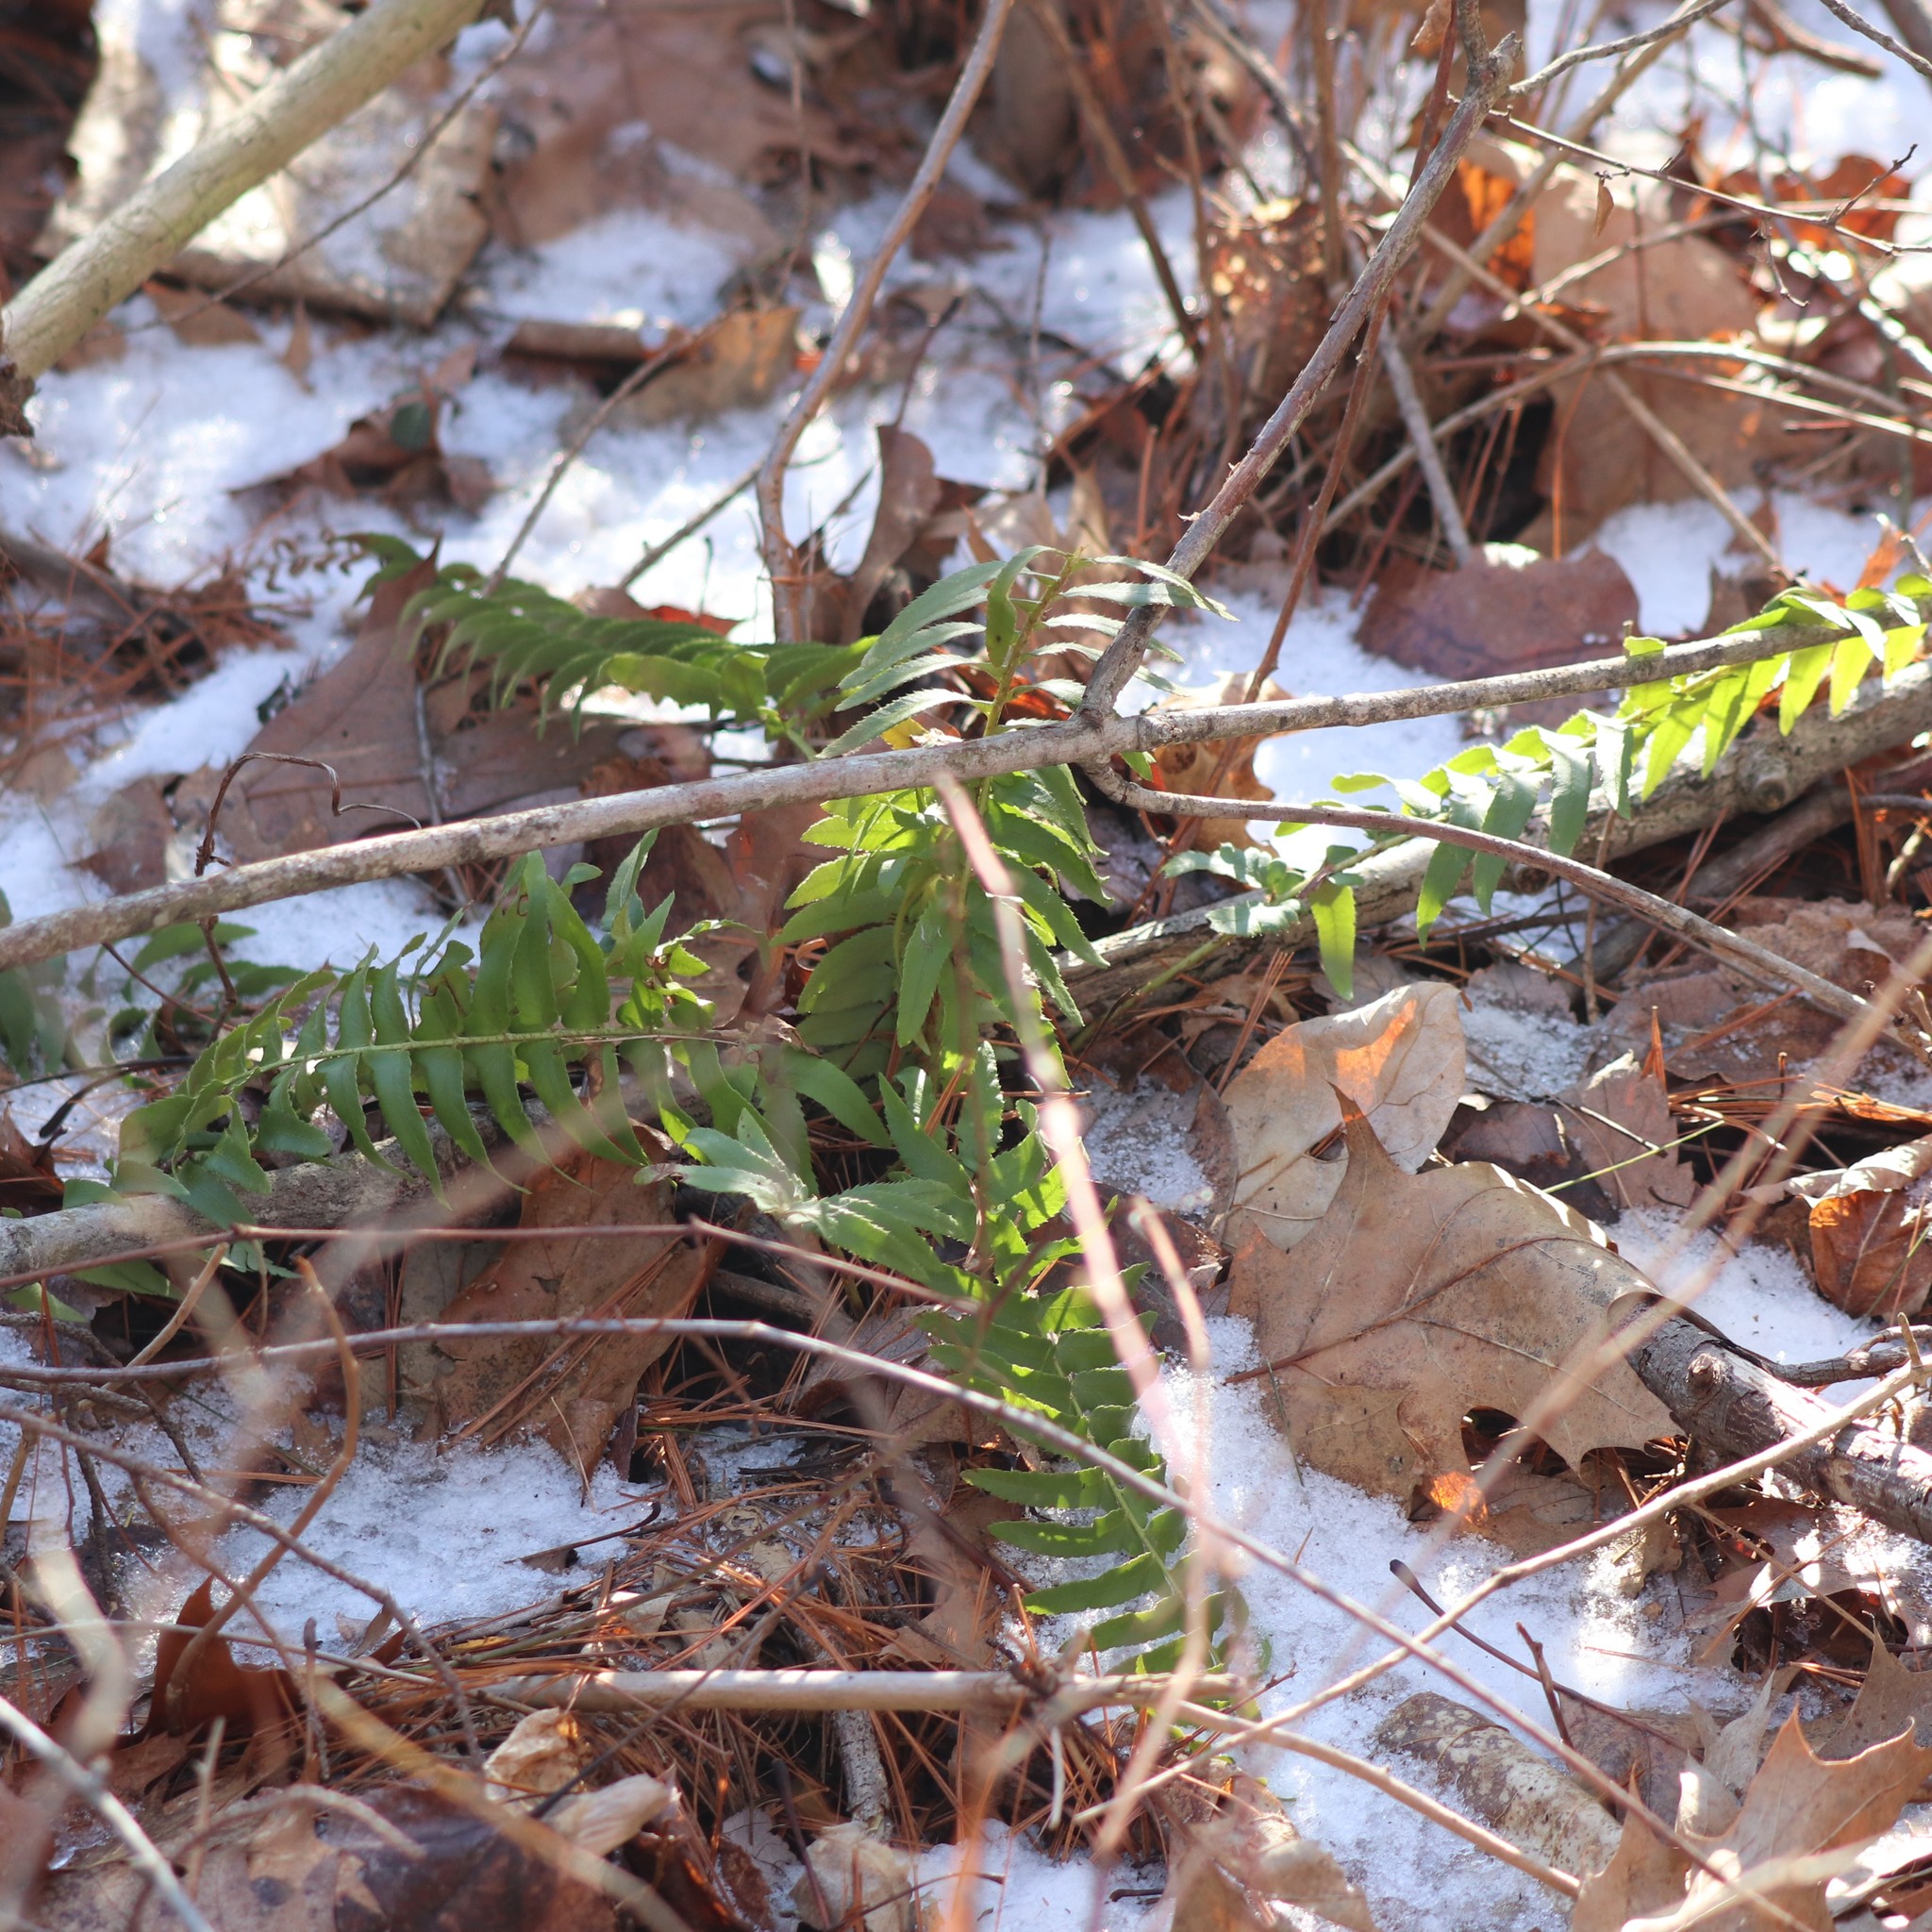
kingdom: Plantae
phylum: Tracheophyta
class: Polypodiopsida
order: Polypodiales
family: Dryopteridaceae
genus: Polystichum
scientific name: Polystichum acrostichoides
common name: Christmas fern
